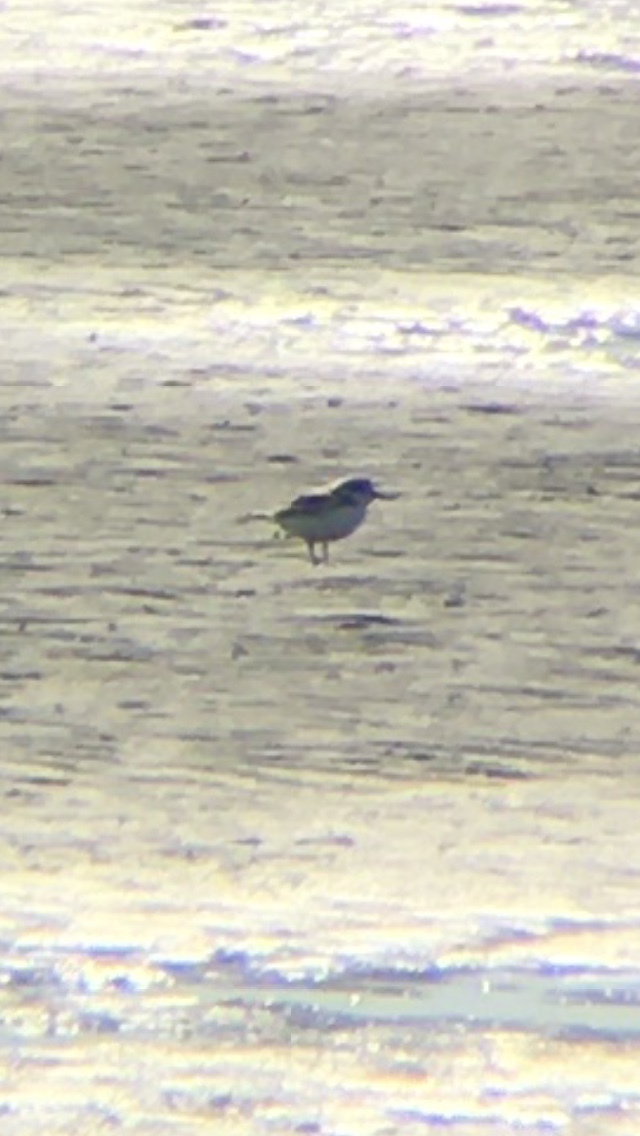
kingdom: Animalia
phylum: Chordata
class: Aves
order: Charadriiformes
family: Scolopacidae
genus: Calidris
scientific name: Calidris alba
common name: Sanderling
